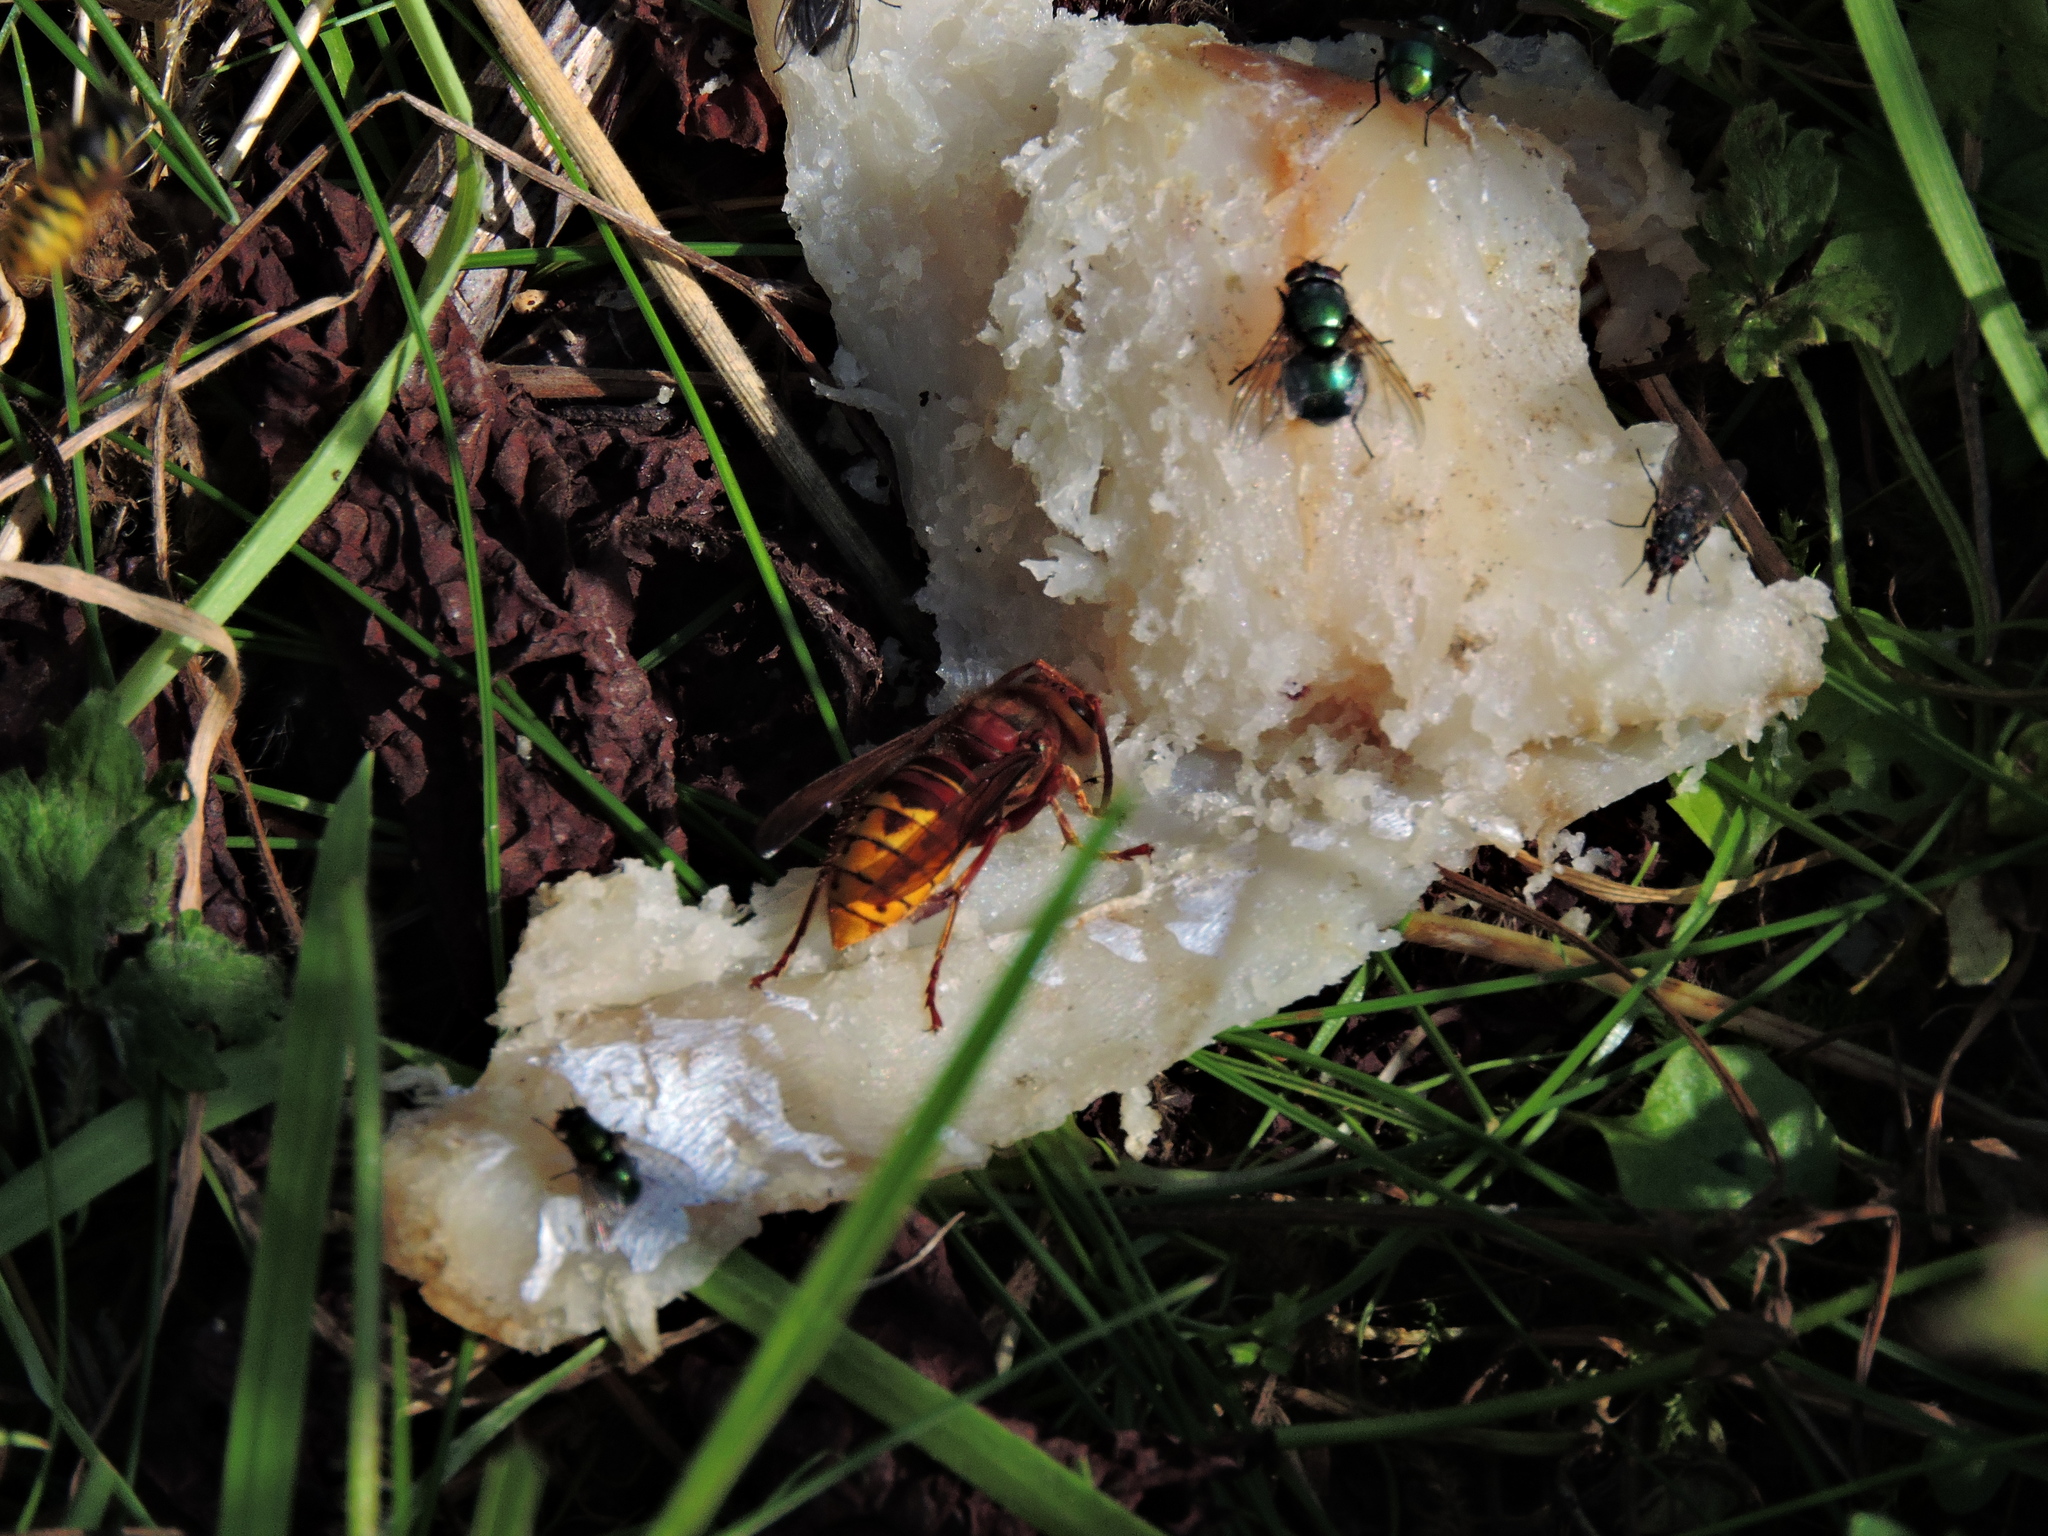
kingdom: Animalia
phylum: Arthropoda
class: Insecta
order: Hymenoptera
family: Vespidae
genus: Vespa
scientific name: Vespa crabro
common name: Hornet
